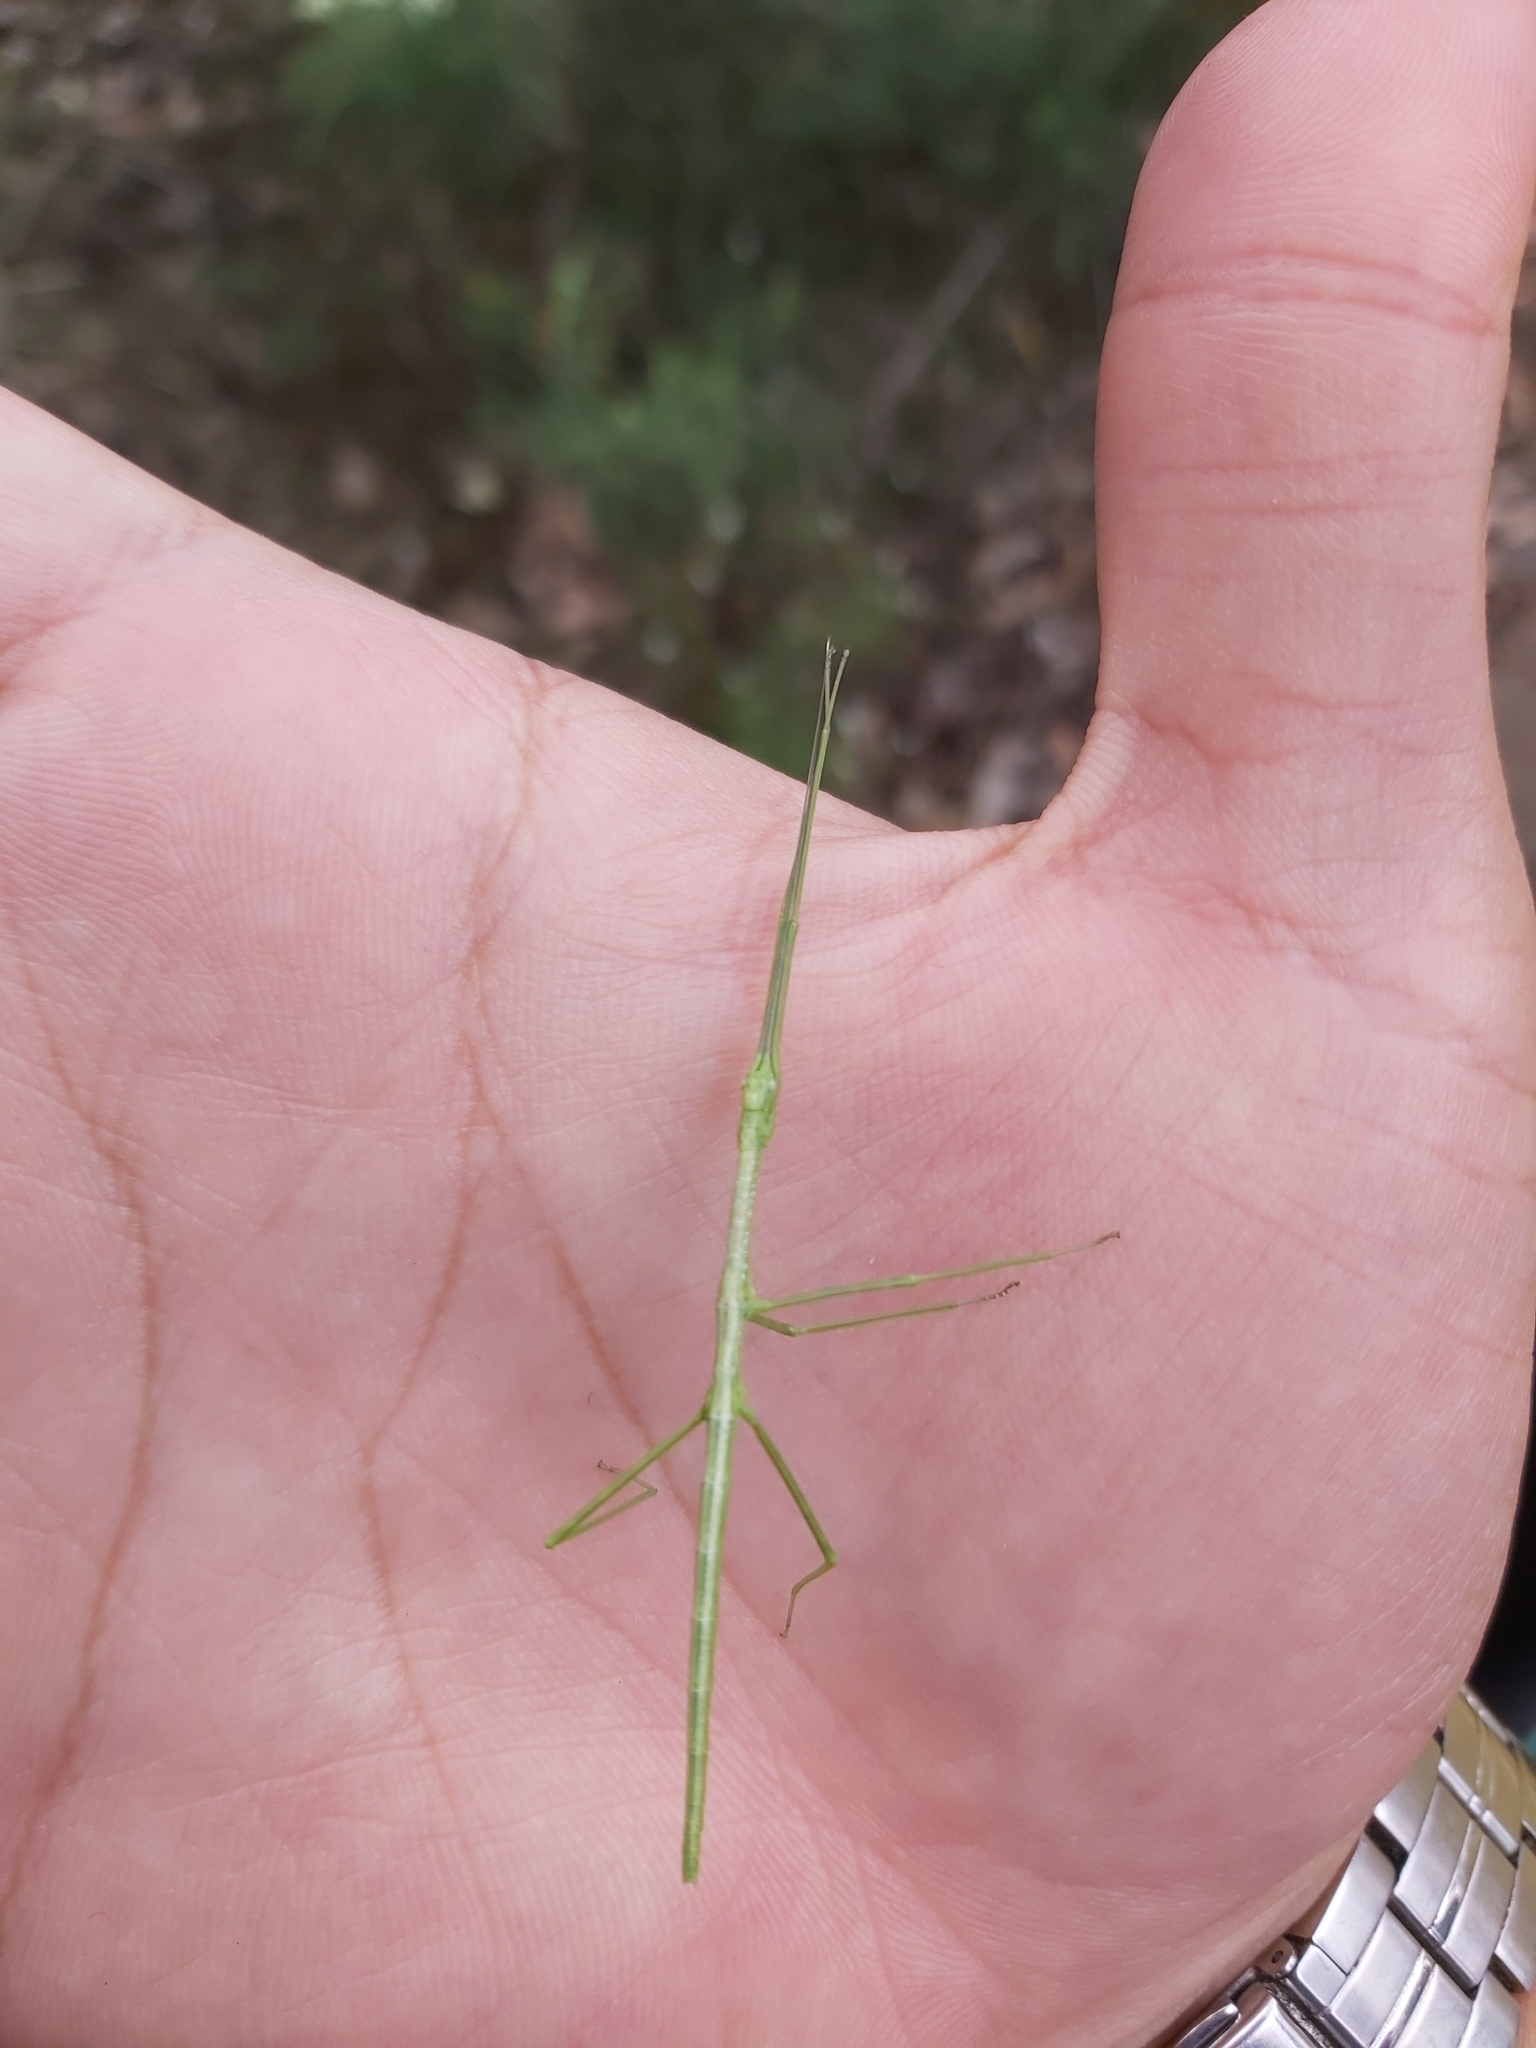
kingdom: Animalia
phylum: Arthropoda
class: Insecta
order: Phasmida
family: Lonchodidae
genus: Candovia
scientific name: Candovia
